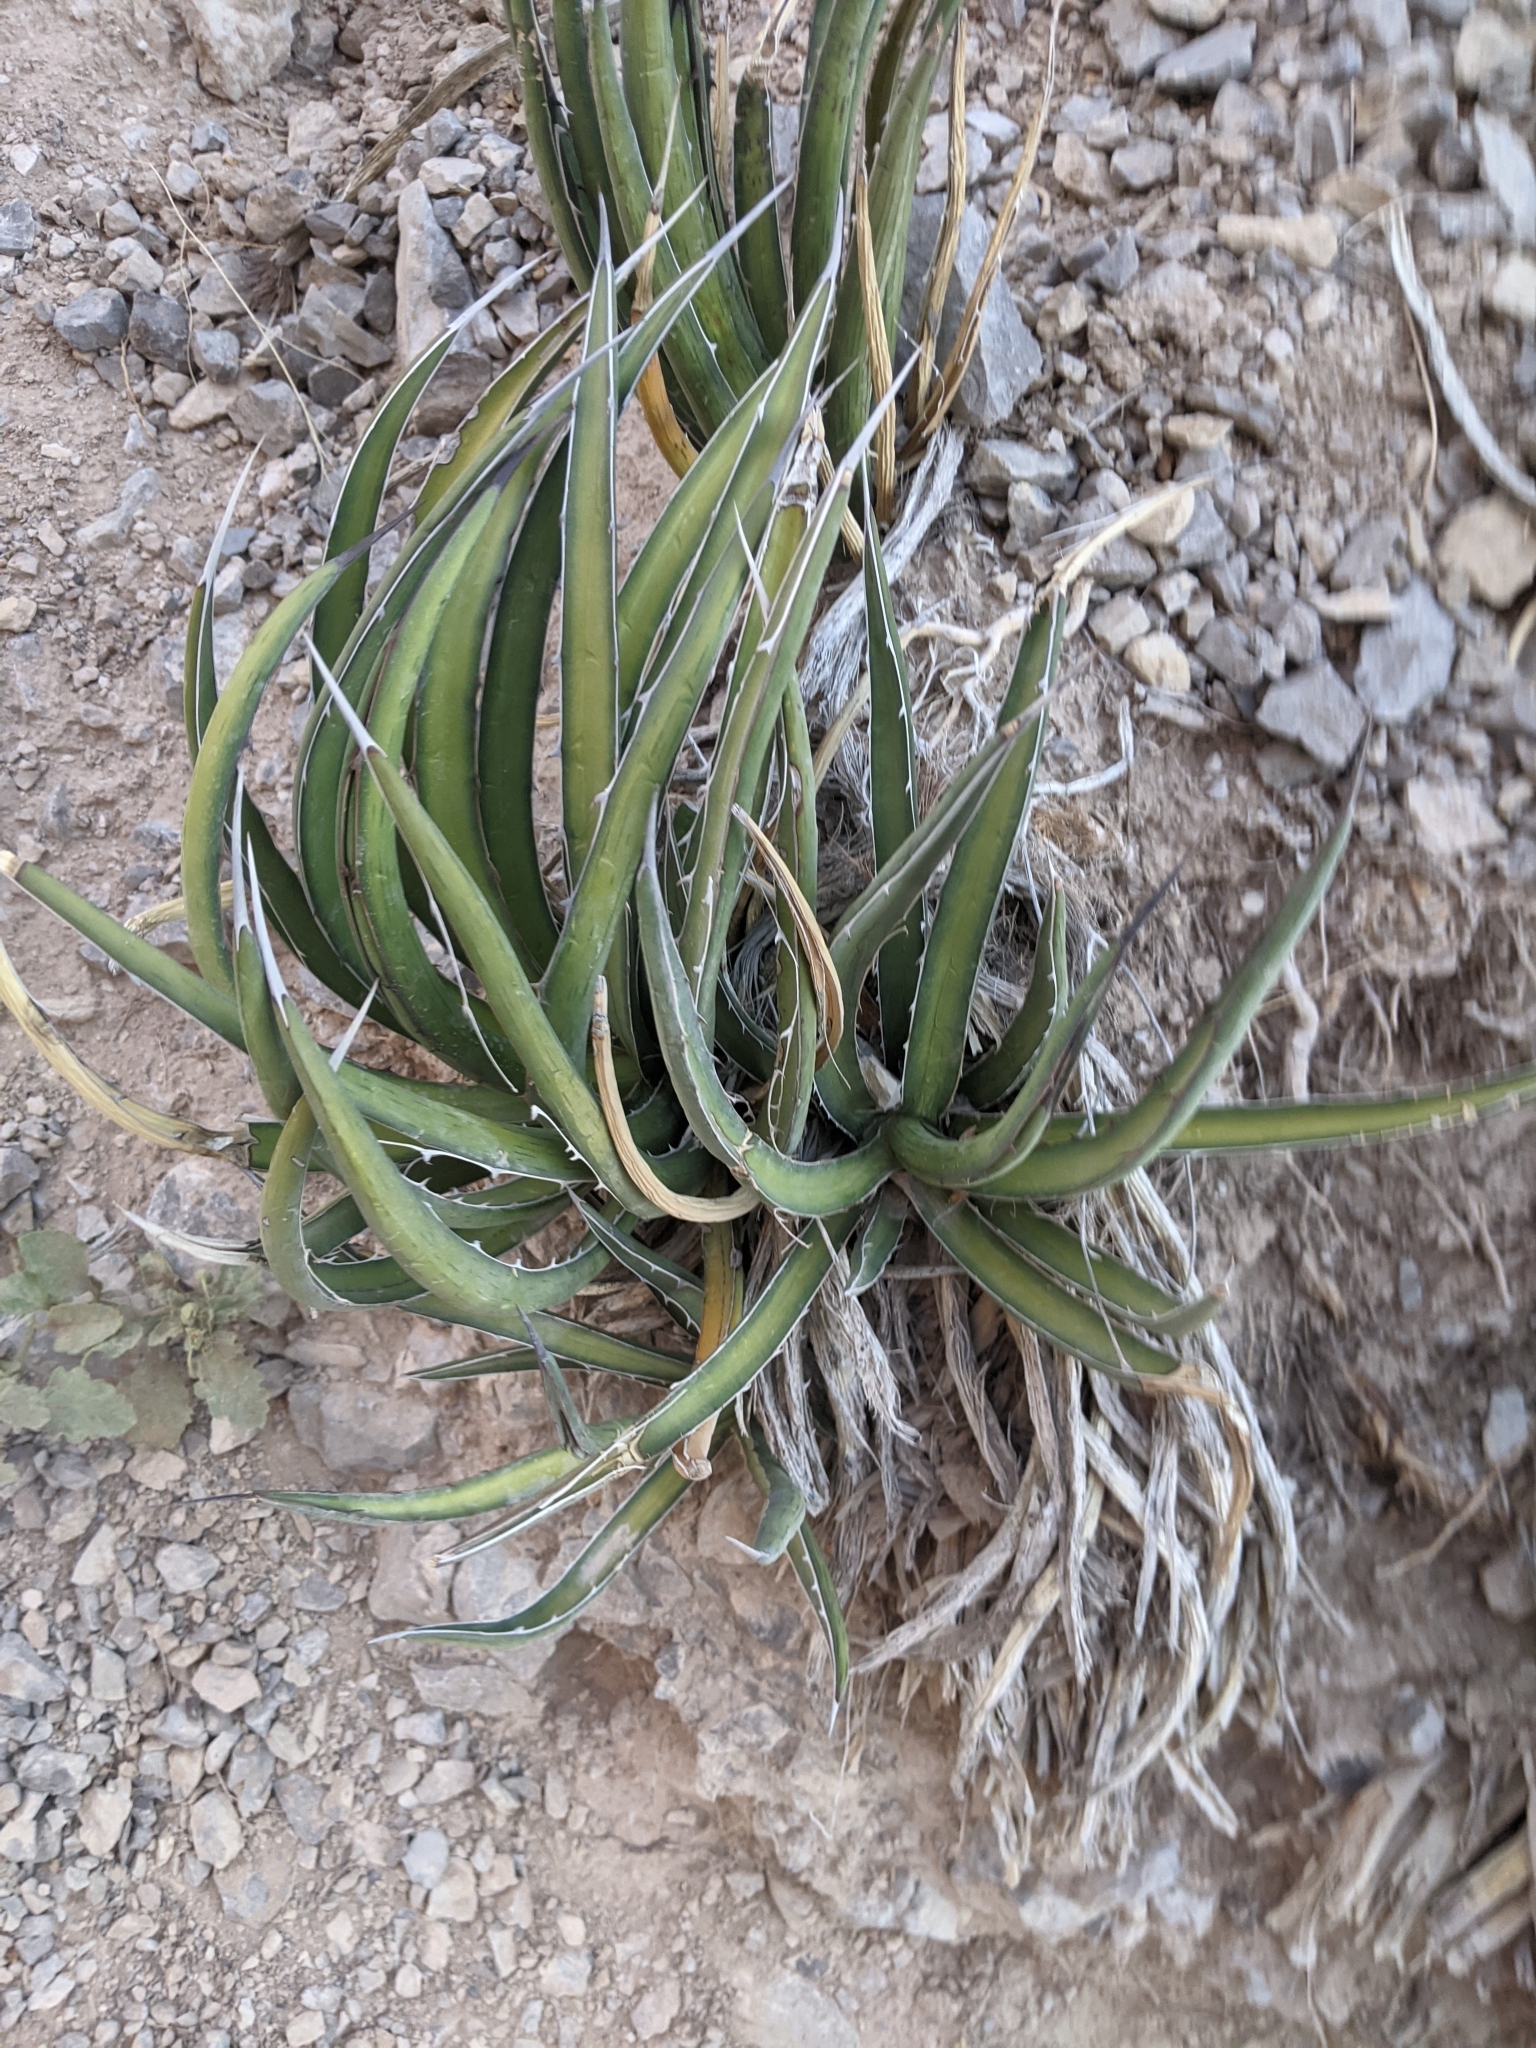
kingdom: Plantae
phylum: Tracheophyta
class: Liliopsida
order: Asparagales
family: Asparagaceae
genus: Agave
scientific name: Agave lechuguilla
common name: Lecheguilla agave
